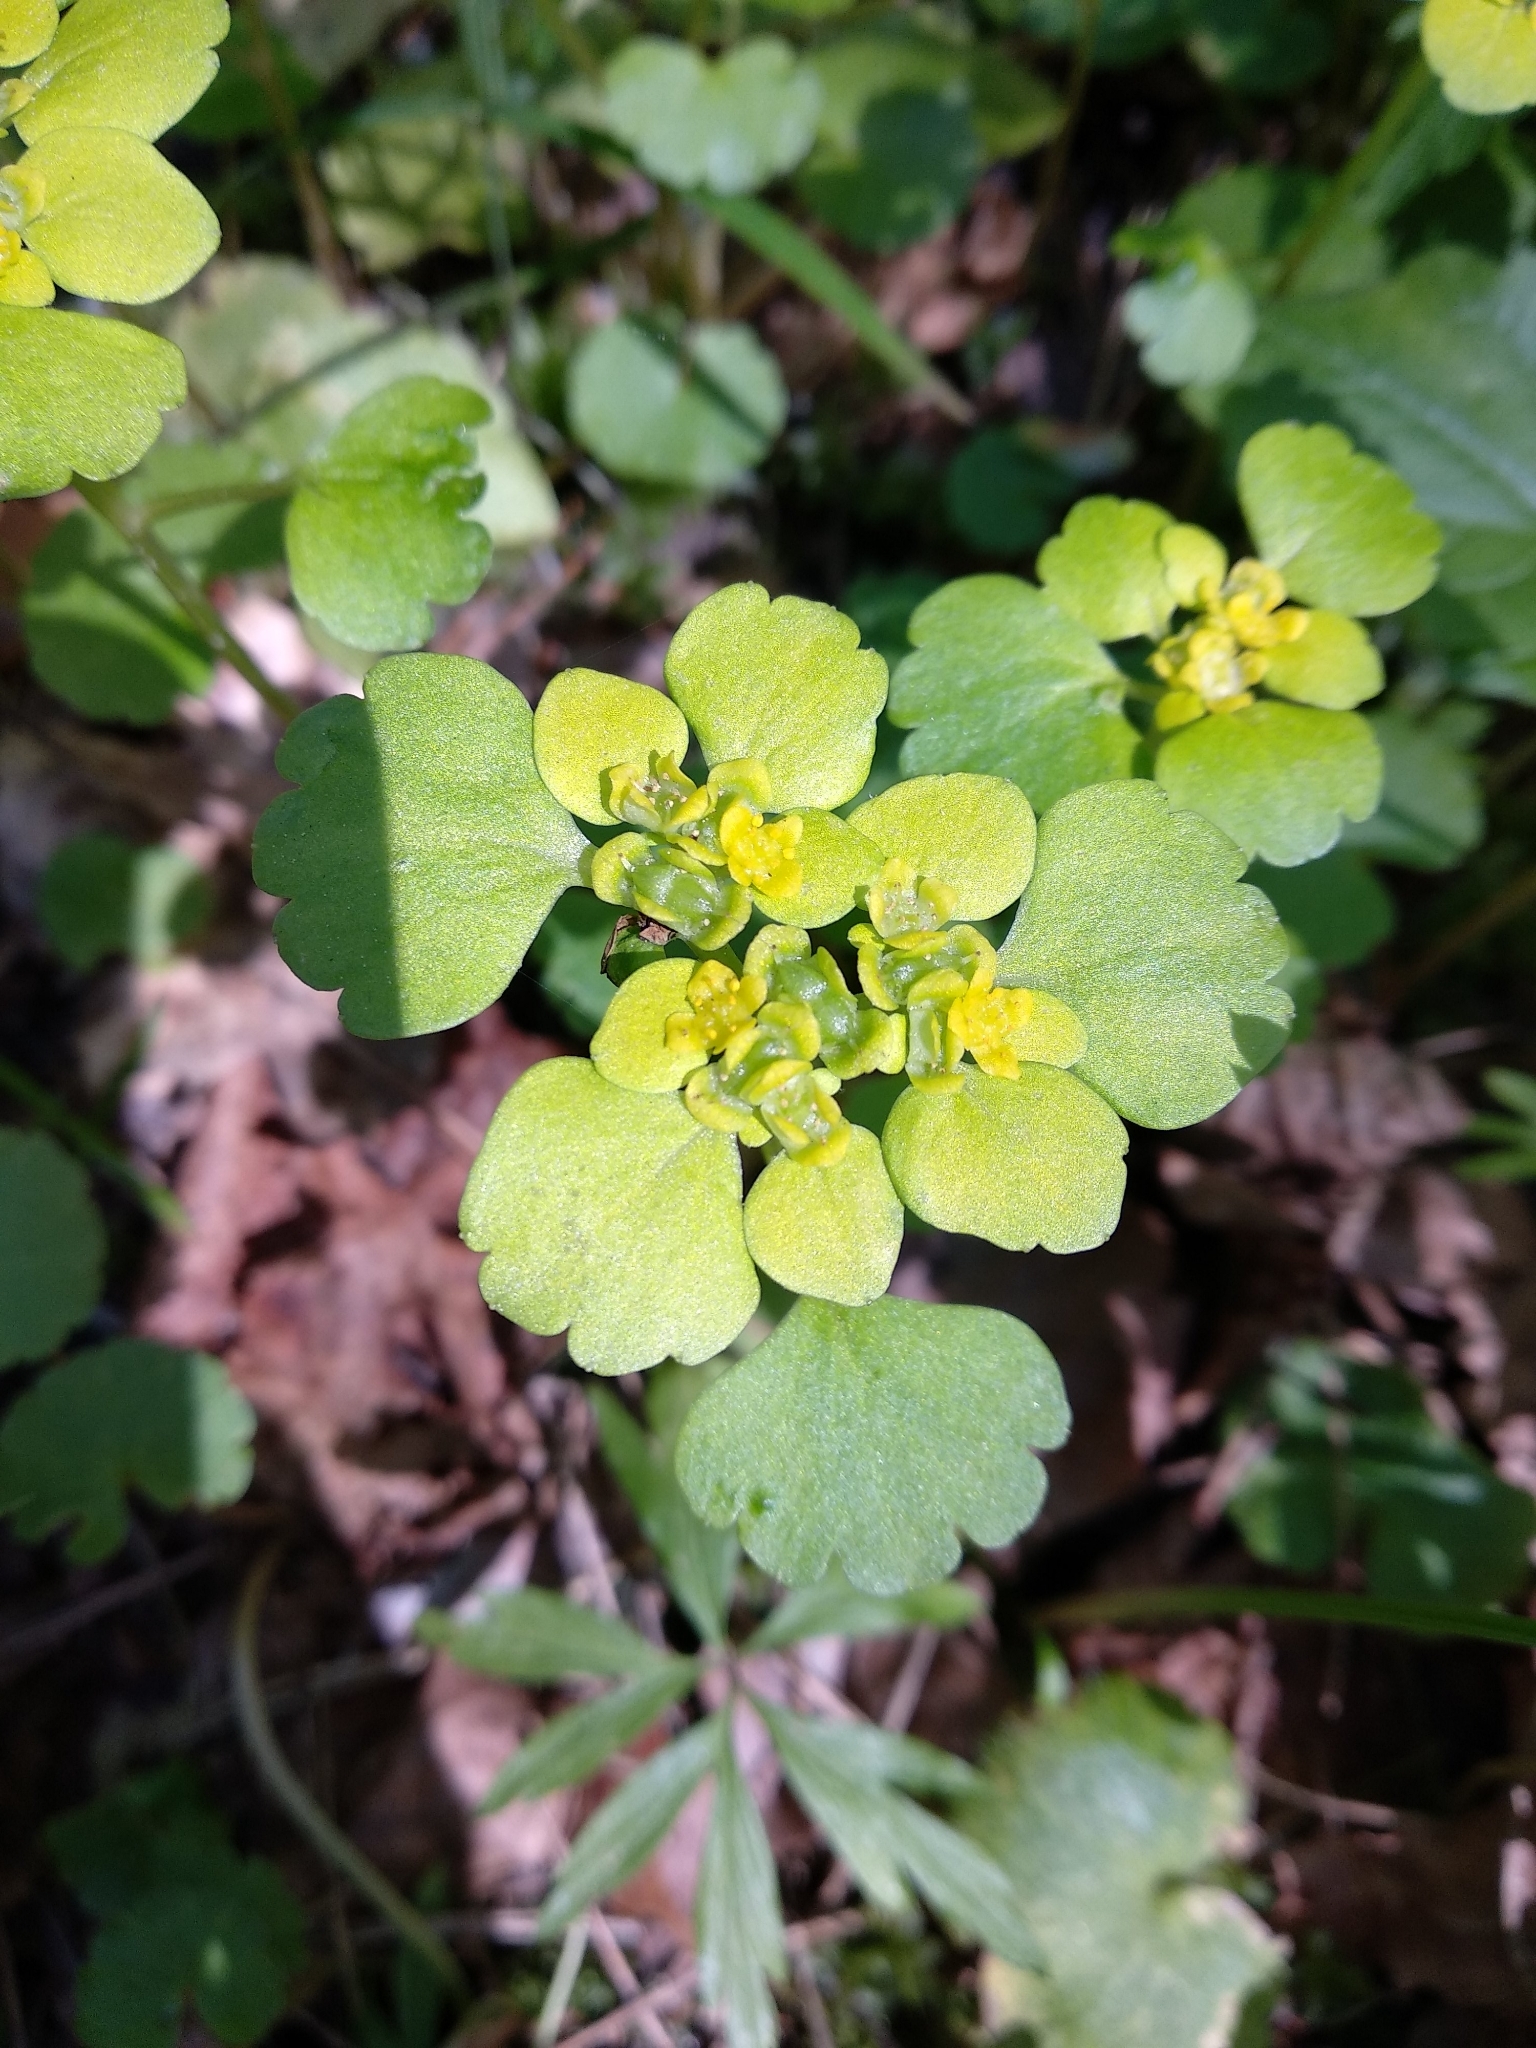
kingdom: Plantae
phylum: Tracheophyta
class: Magnoliopsida
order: Saxifragales
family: Saxifragaceae
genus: Chrysosplenium
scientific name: Chrysosplenium alternifolium
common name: Alternate-leaved golden-saxifrage
